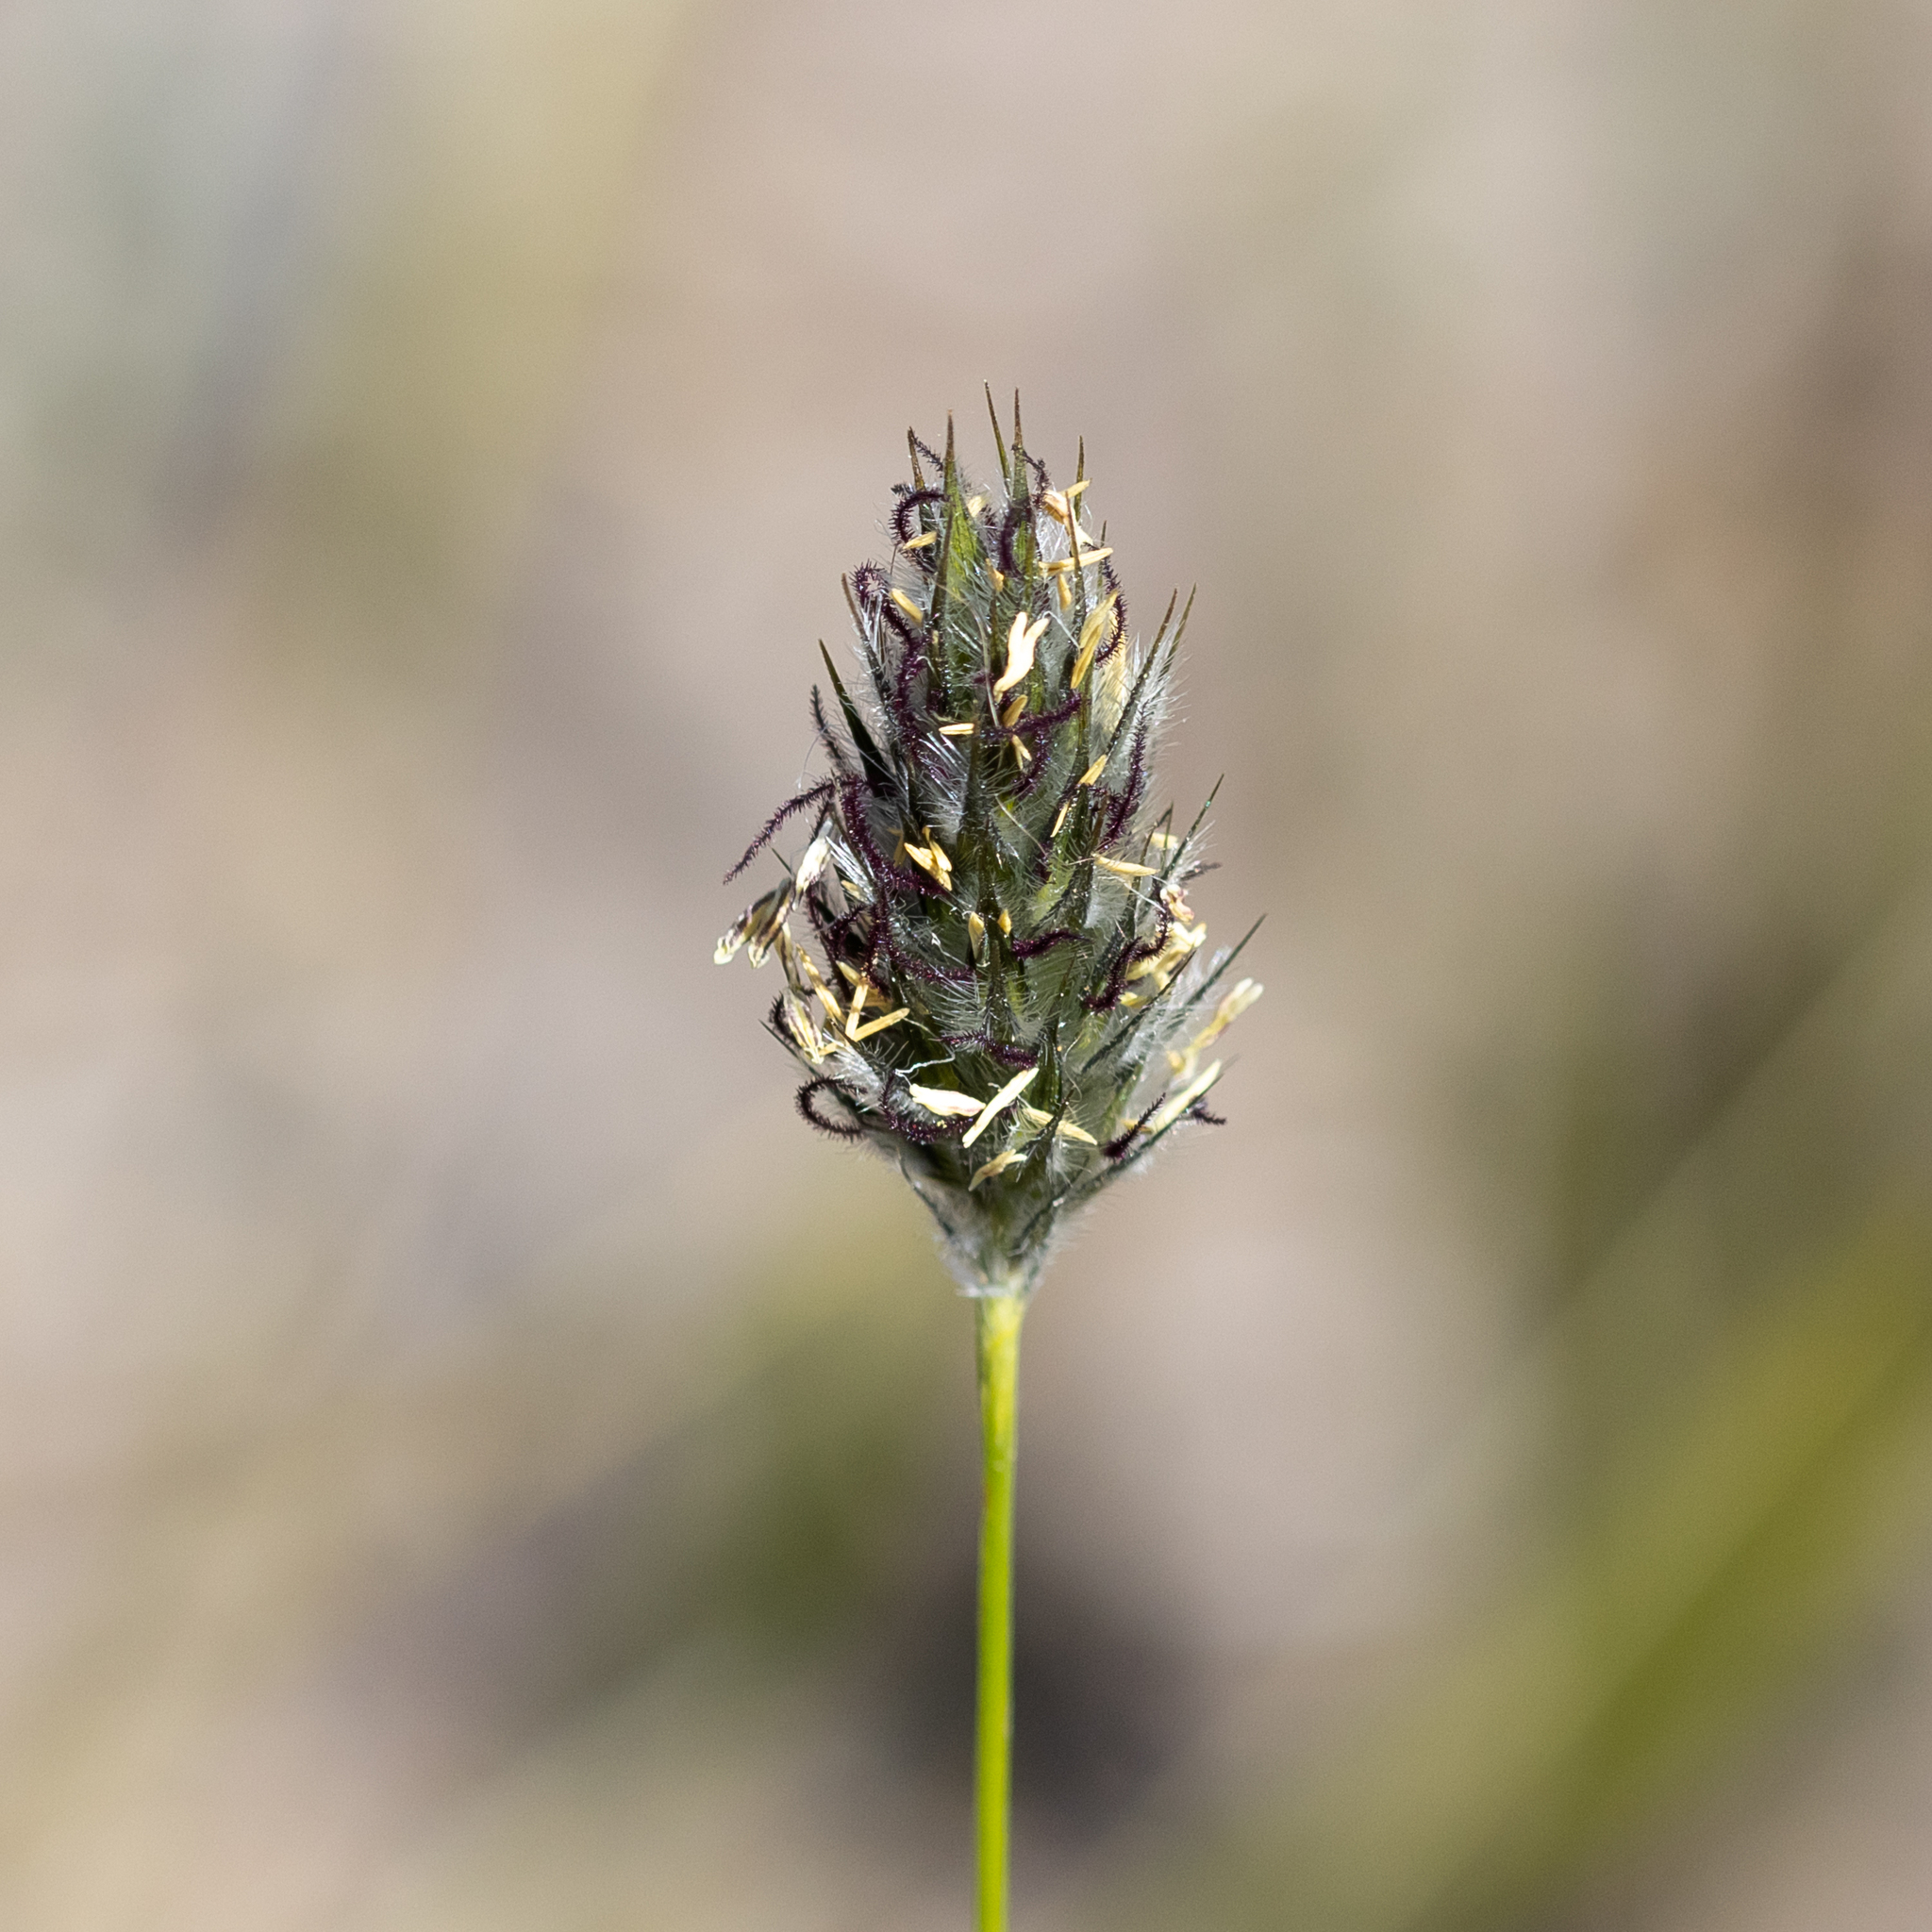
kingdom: Plantae
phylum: Tracheophyta
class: Liliopsida
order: Poales
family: Poaceae
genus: Neurachne
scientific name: Neurachne alopecuroidea
